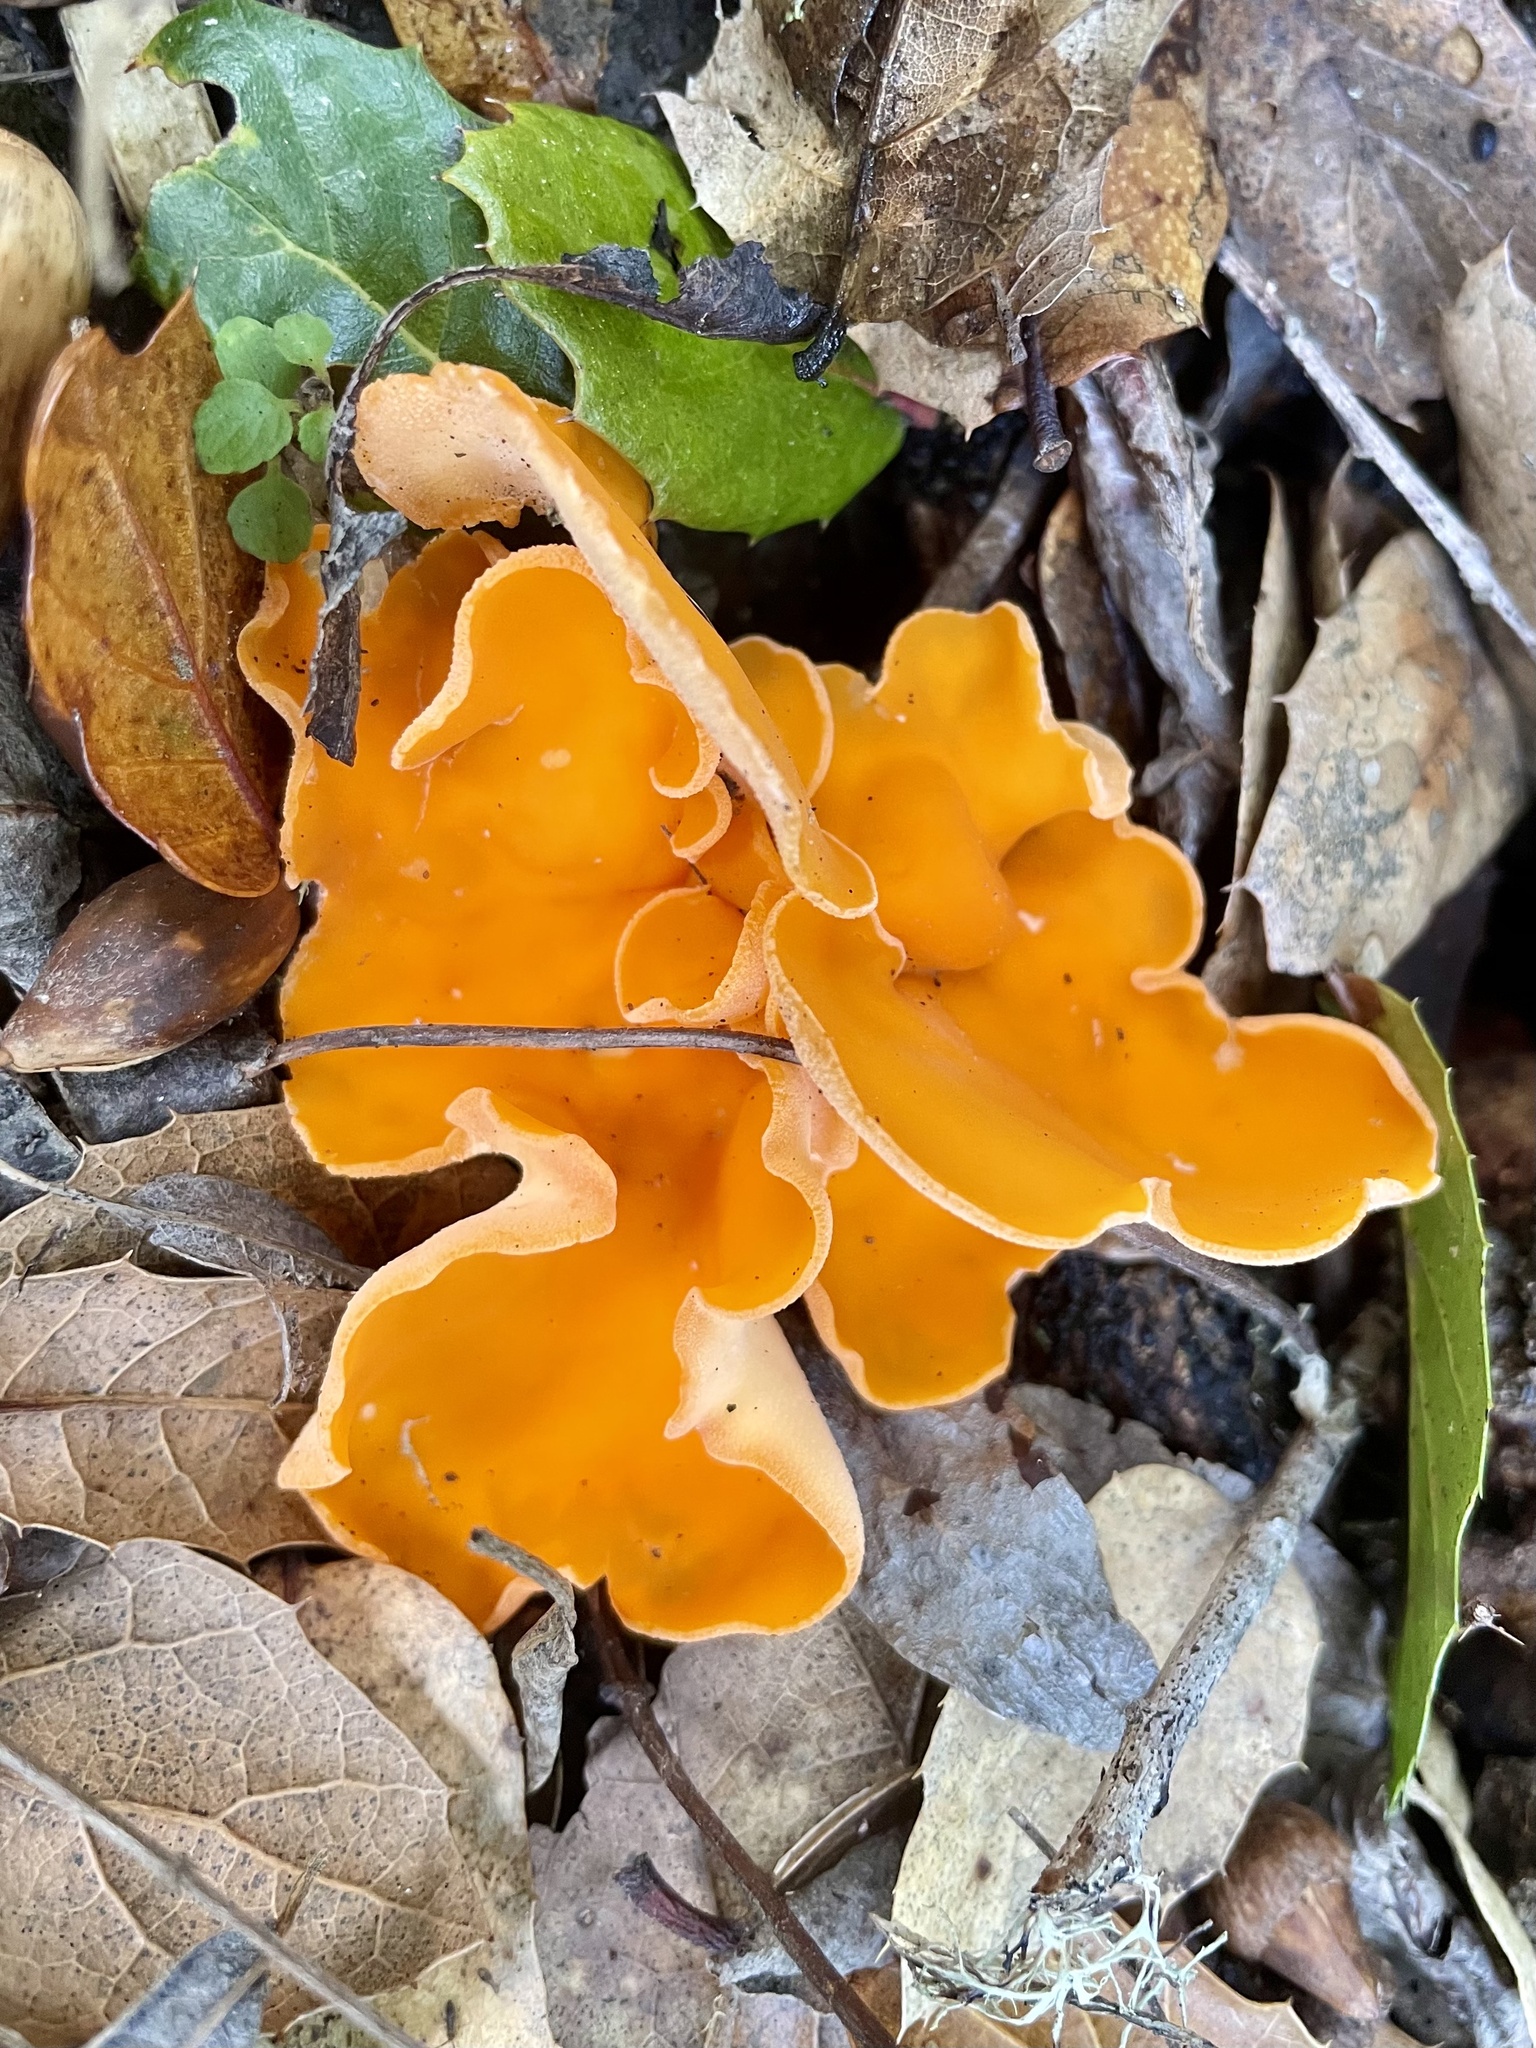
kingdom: Fungi
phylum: Ascomycota
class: Pezizomycetes
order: Pezizales
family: Pyronemataceae
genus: Aleuria
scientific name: Aleuria aurantia
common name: Orange peel fungus
